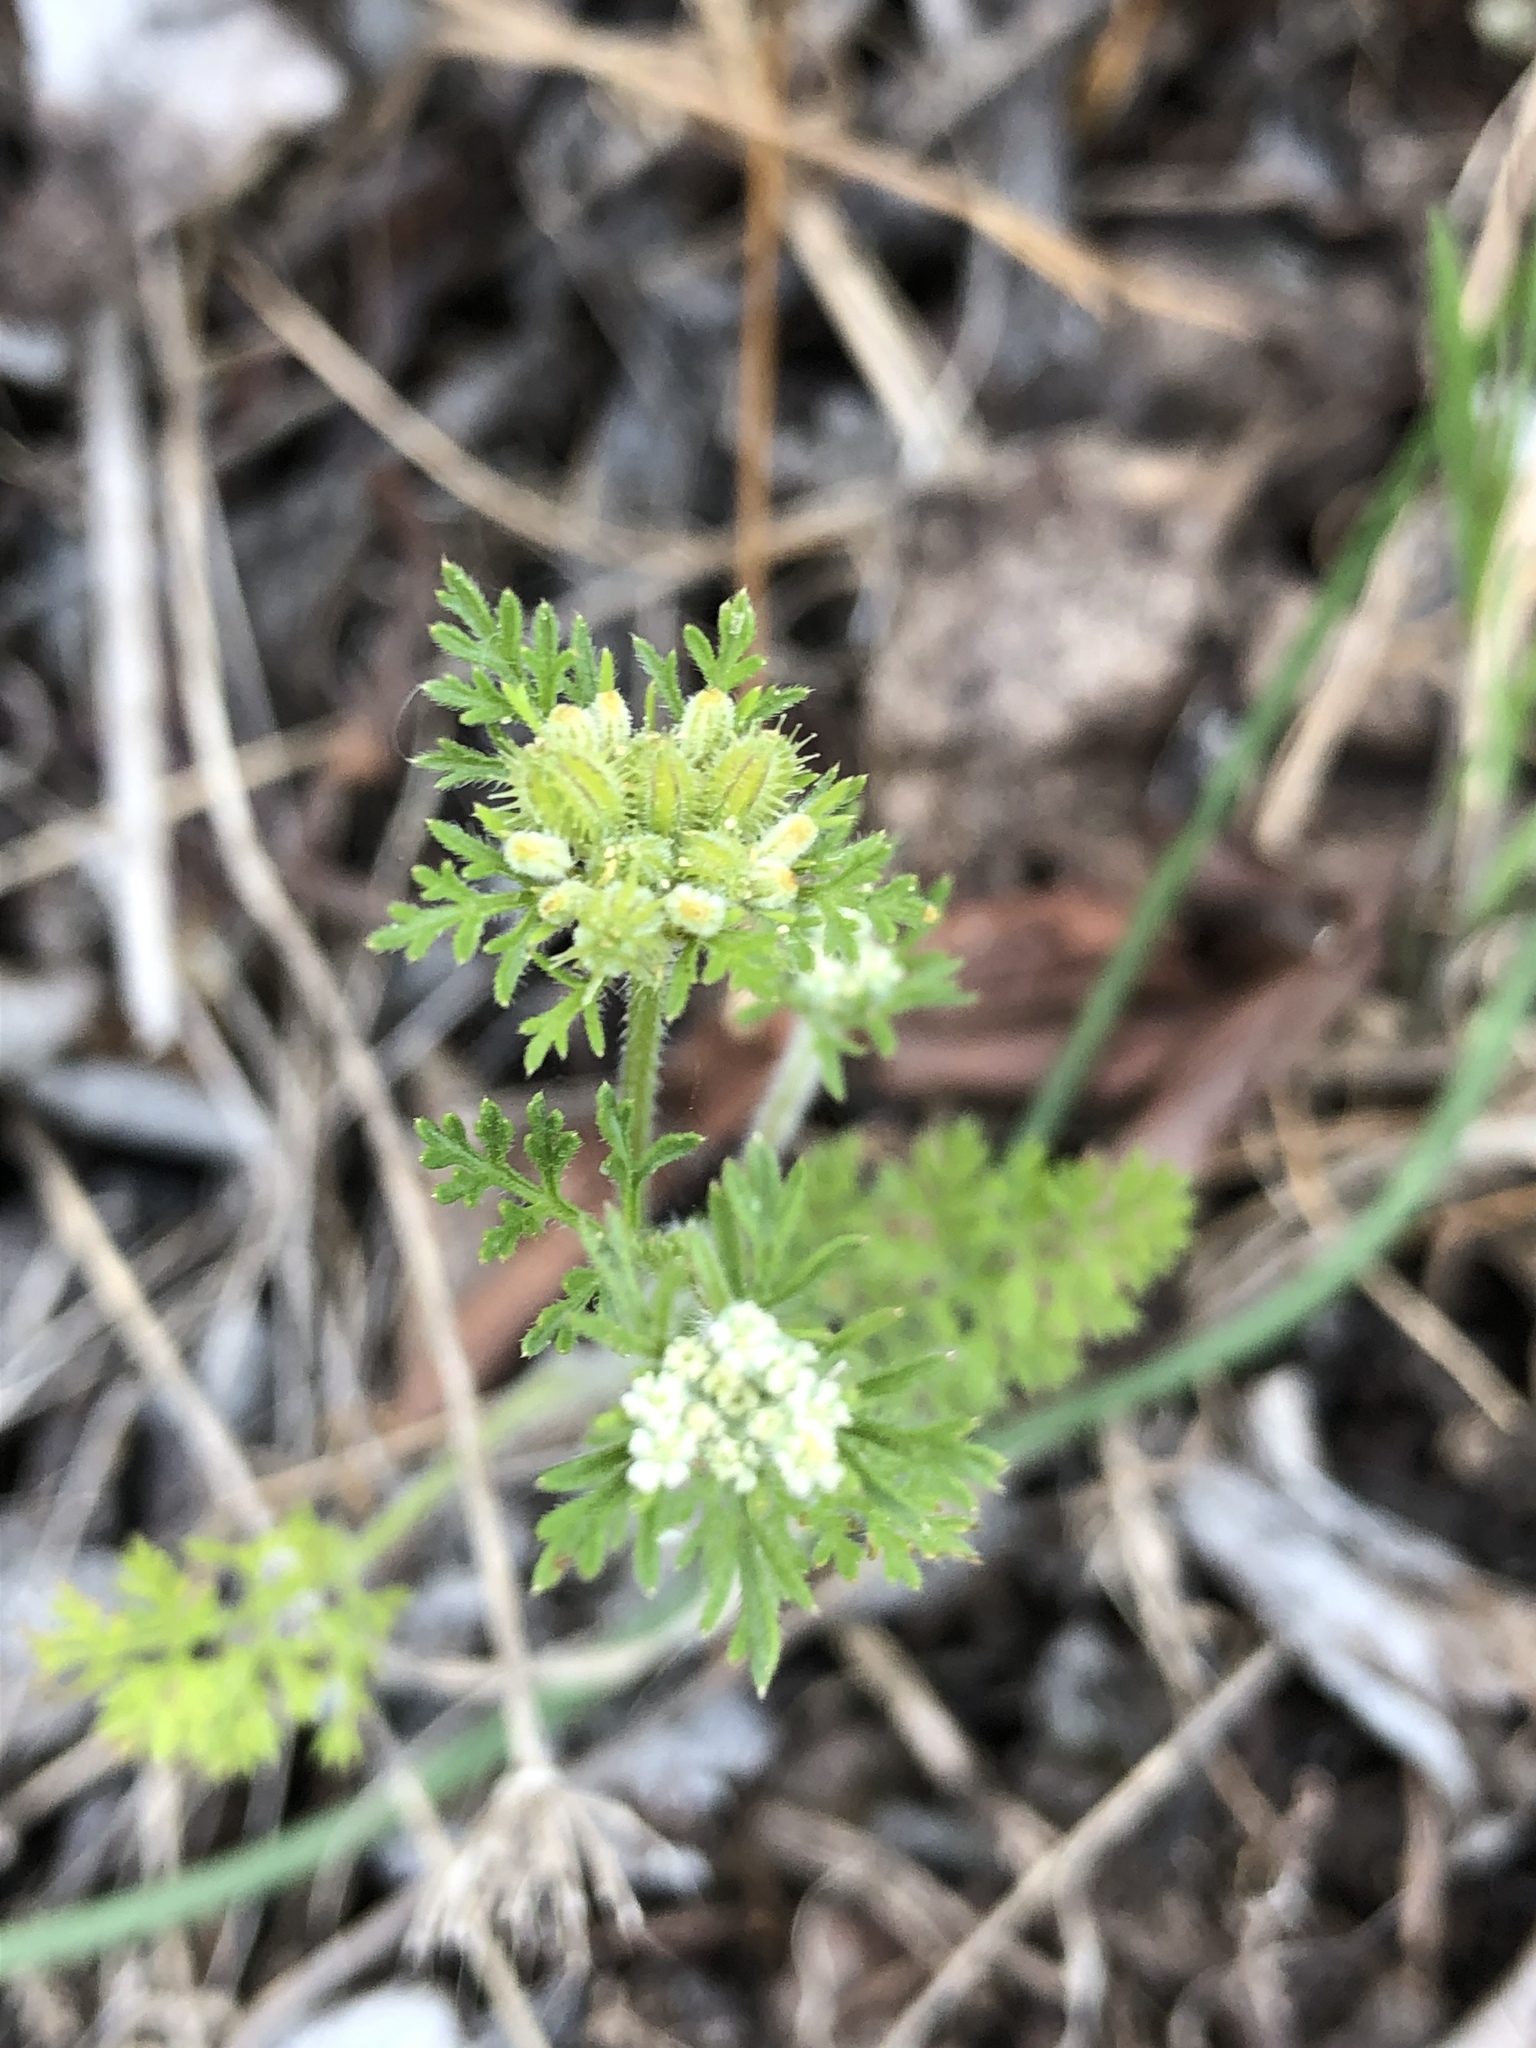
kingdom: Plantae
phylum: Tracheophyta
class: Magnoliopsida
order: Apiales
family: Apiaceae
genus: Daucus
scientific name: Daucus pusillus
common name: Southwest wild carrot
